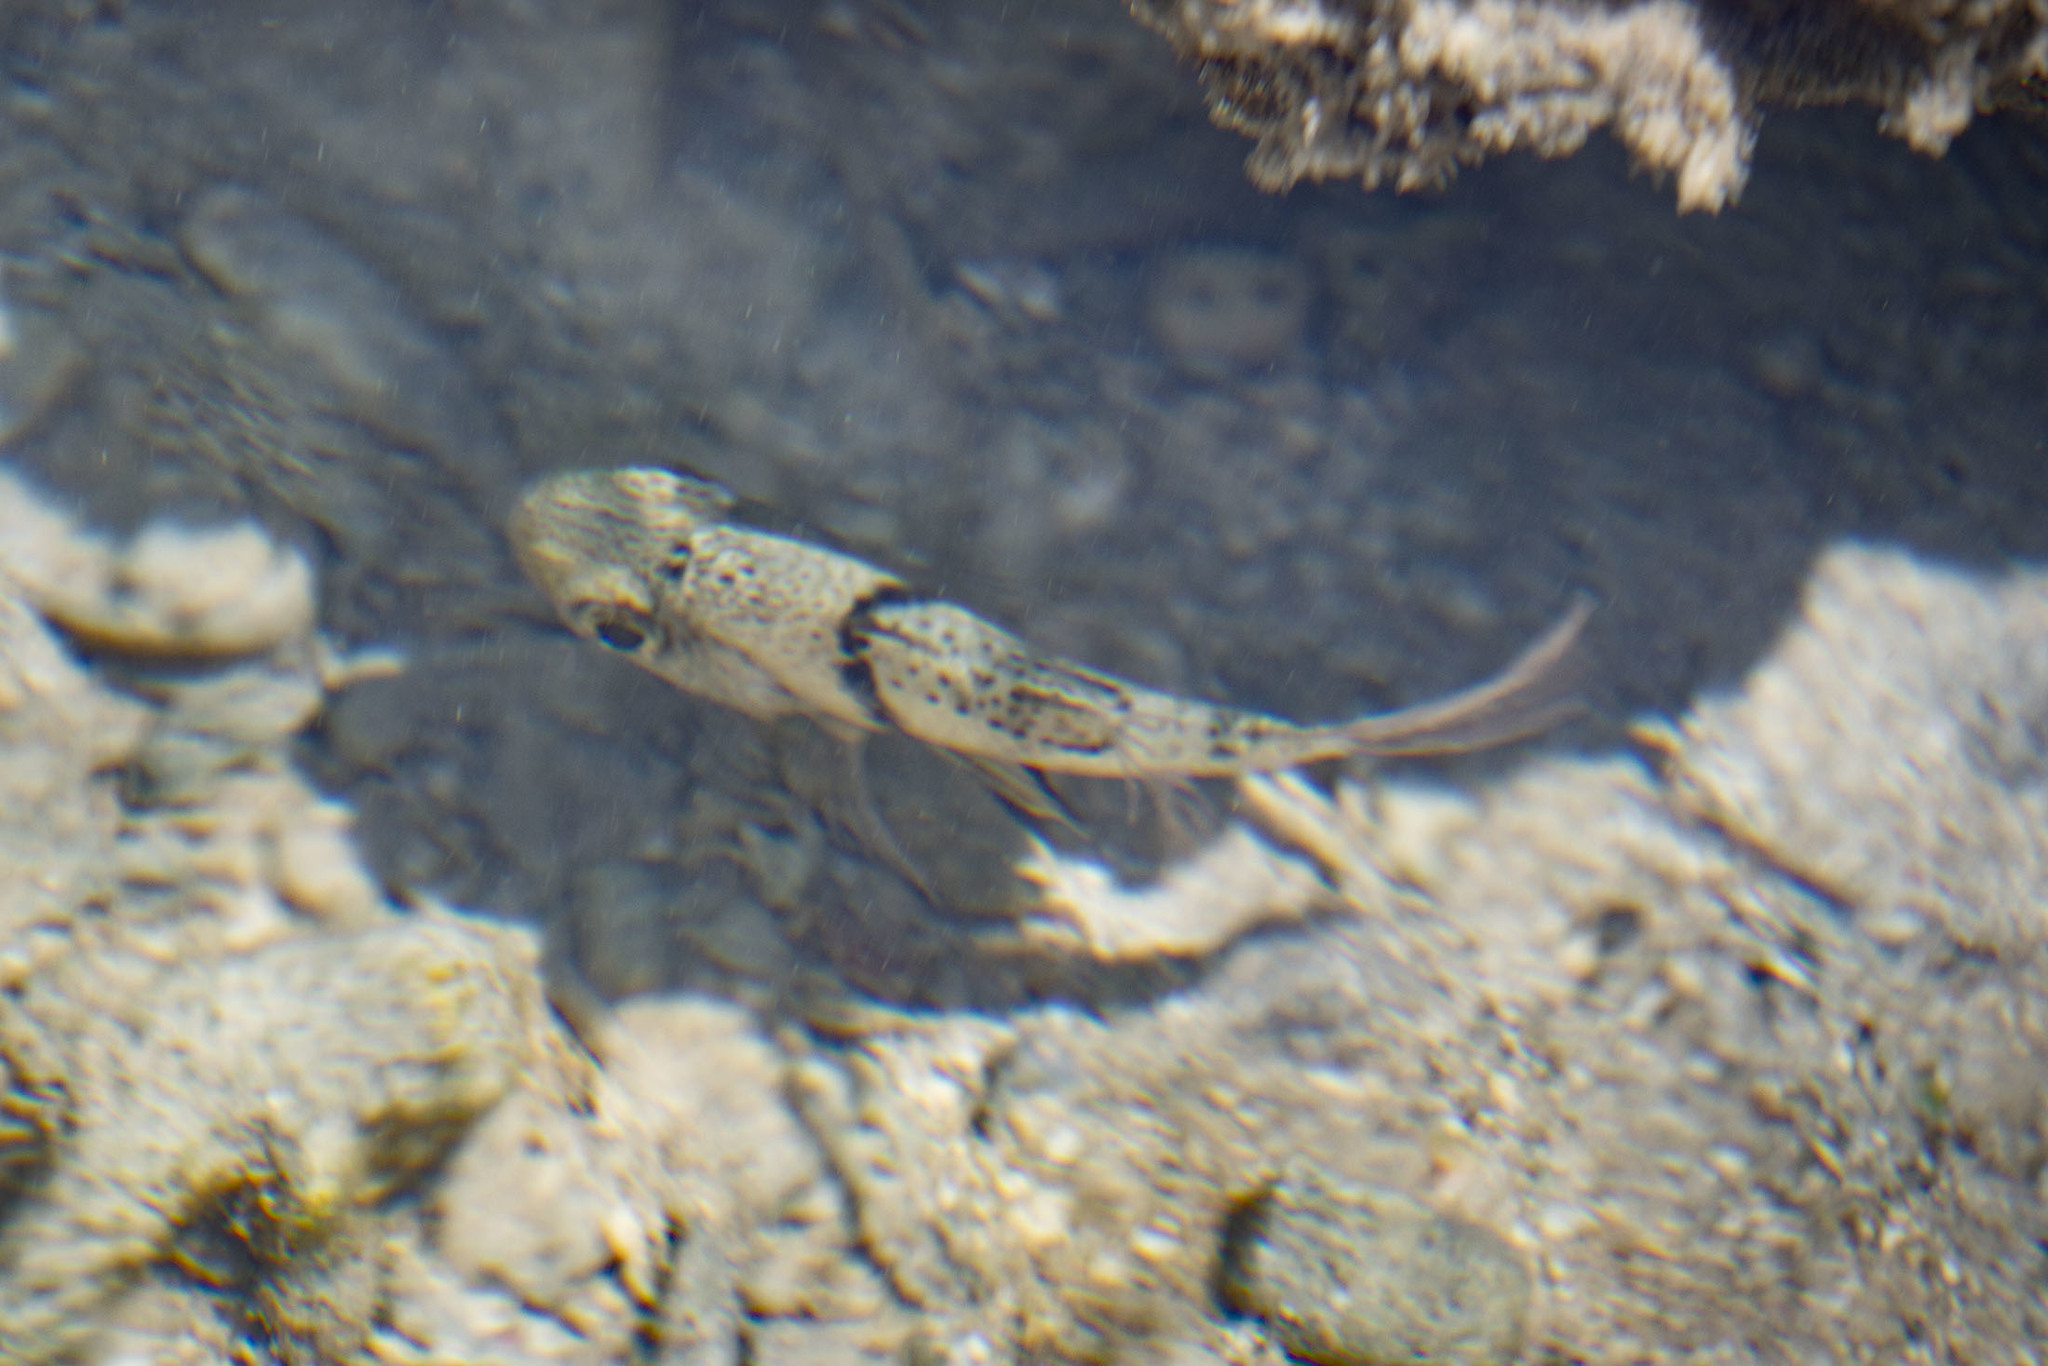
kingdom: Animalia
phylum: Chordata
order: Perciformes
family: Apogonidae
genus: Sphaeramia
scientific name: Sphaeramia orbicularis
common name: Polka-dot cardinalfish
